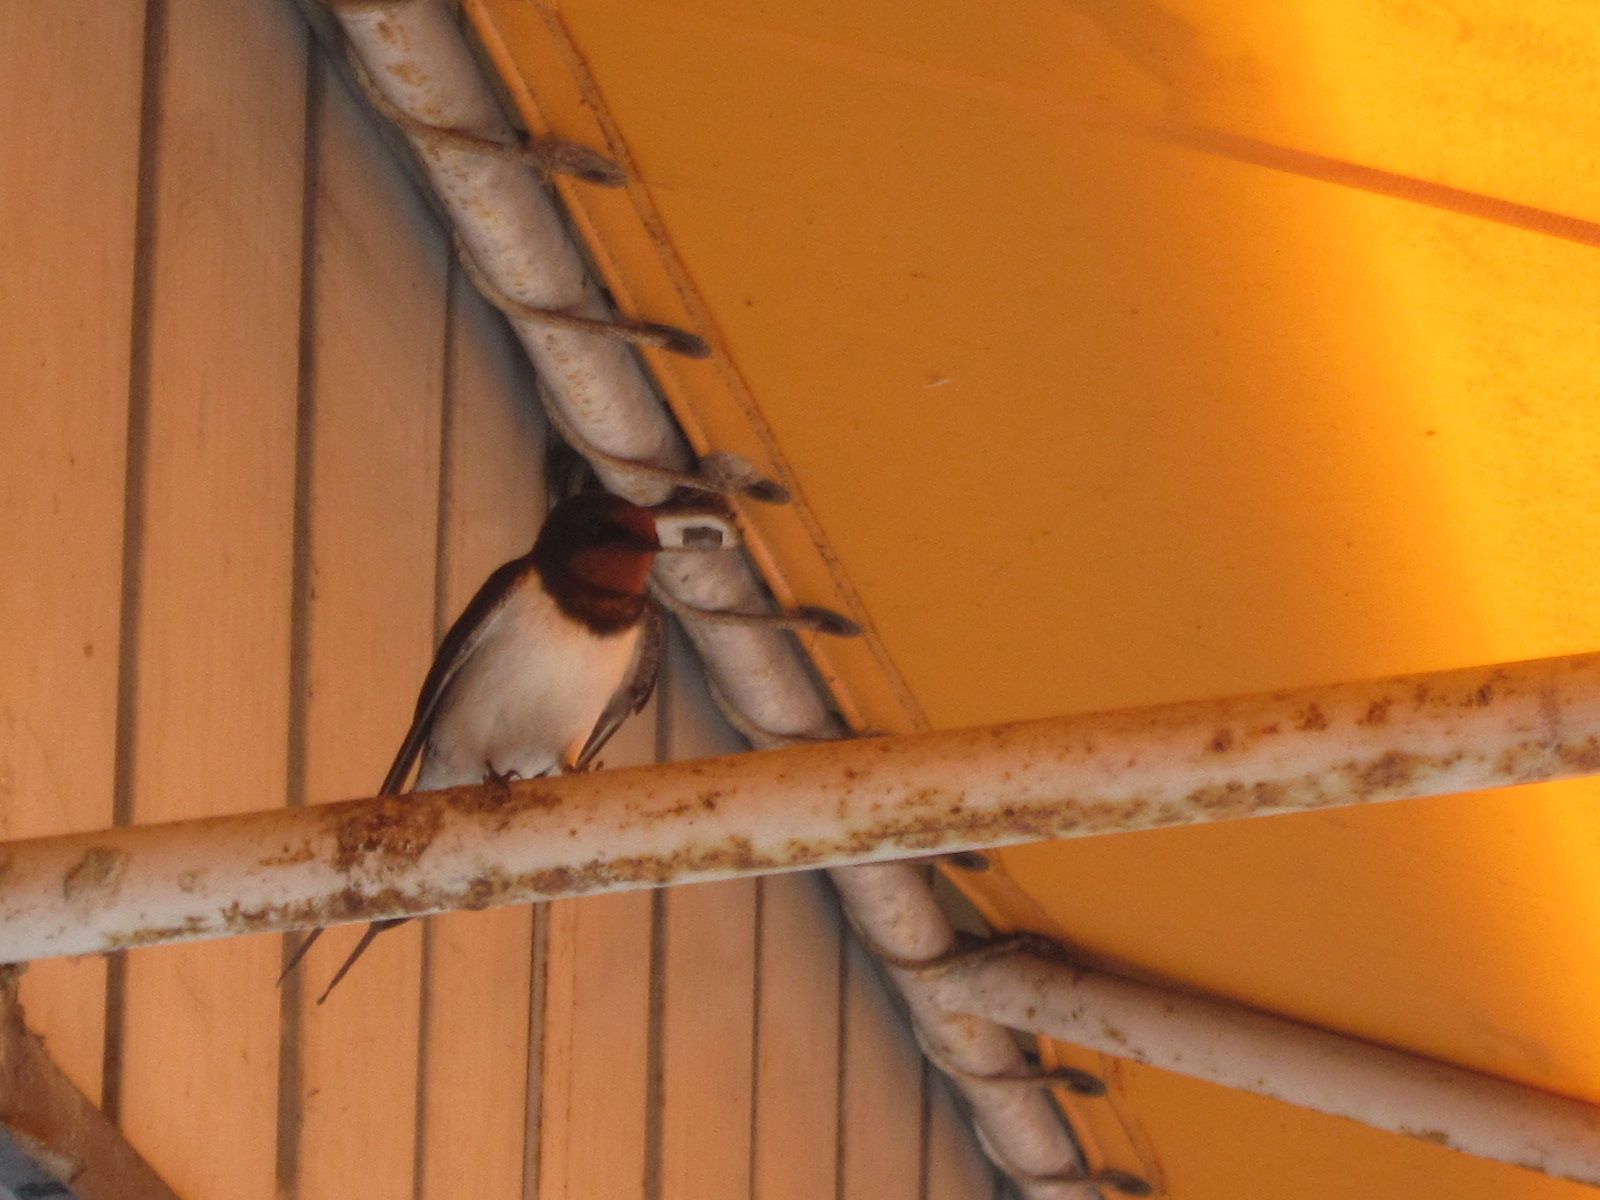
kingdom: Animalia
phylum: Chordata
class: Aves
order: Passeriformes
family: Hirundinidae
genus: Hirundo
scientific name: Hirundo rustica
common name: Barn swallow
